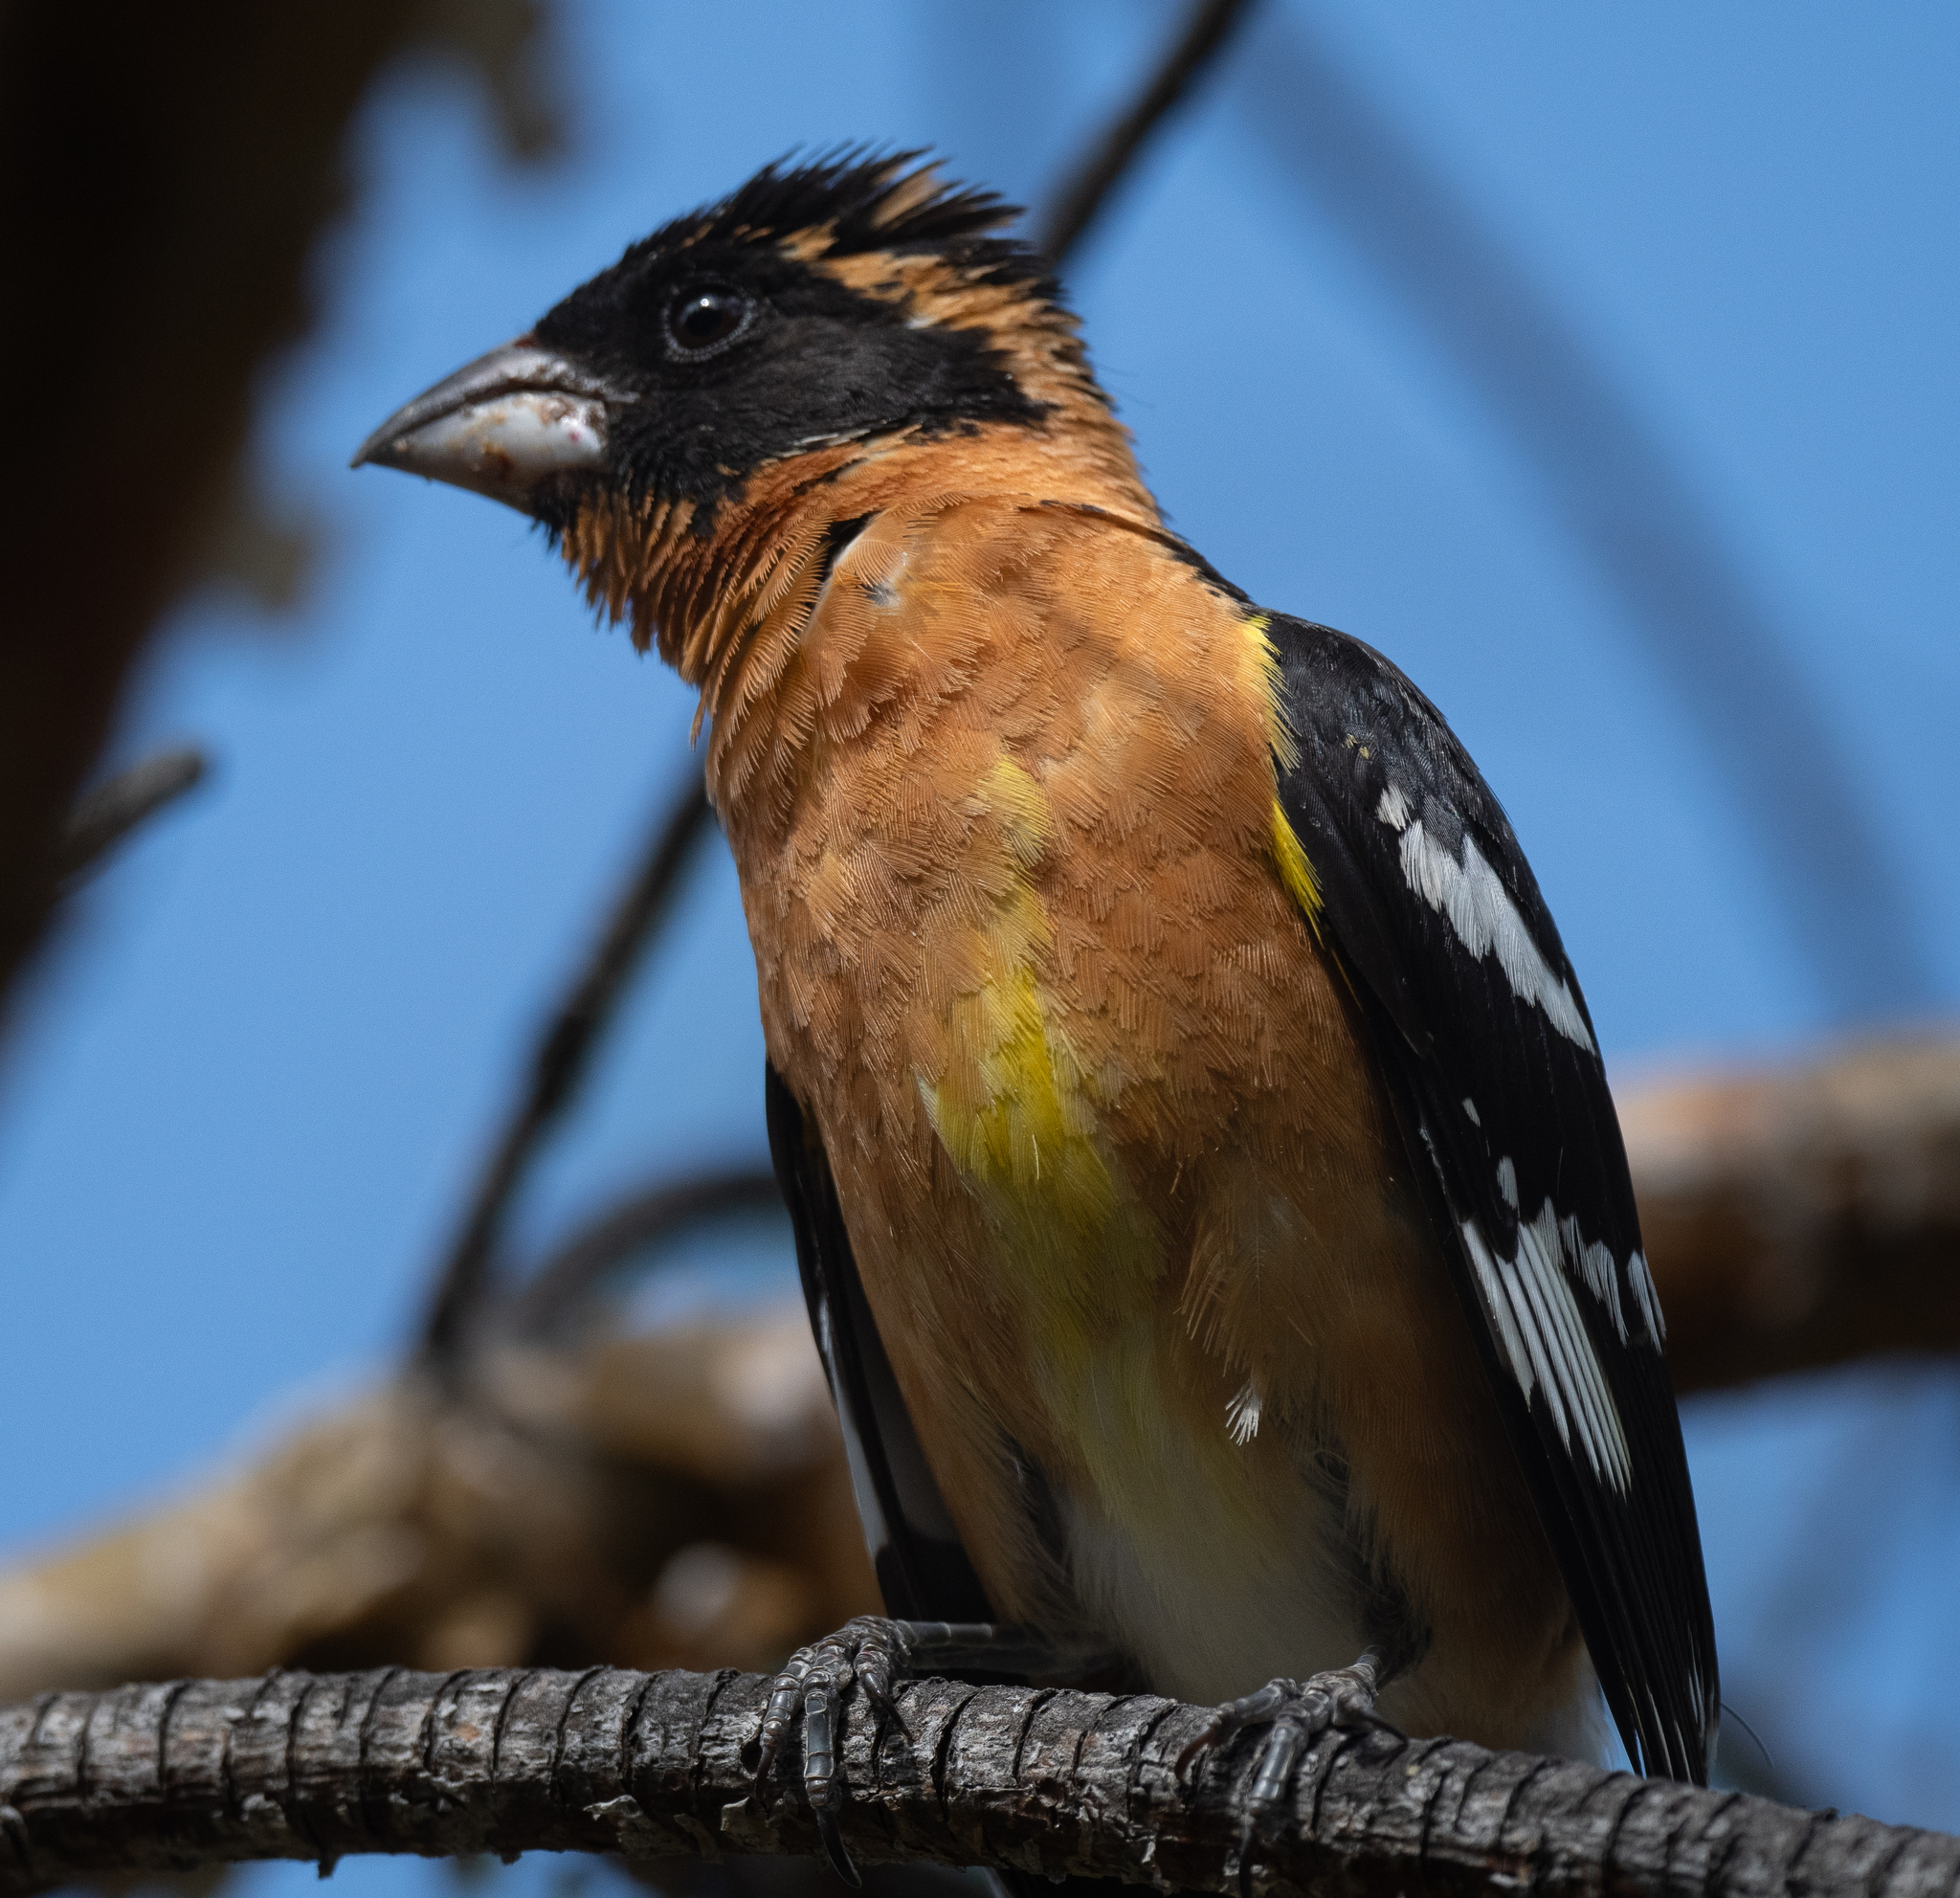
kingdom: Animalia
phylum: Chordata
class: Aves
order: Passeriformes
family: Cardinalidae
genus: Pheucticus
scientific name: Pheucticus melanocephalus
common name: Black-headed grosbeak
